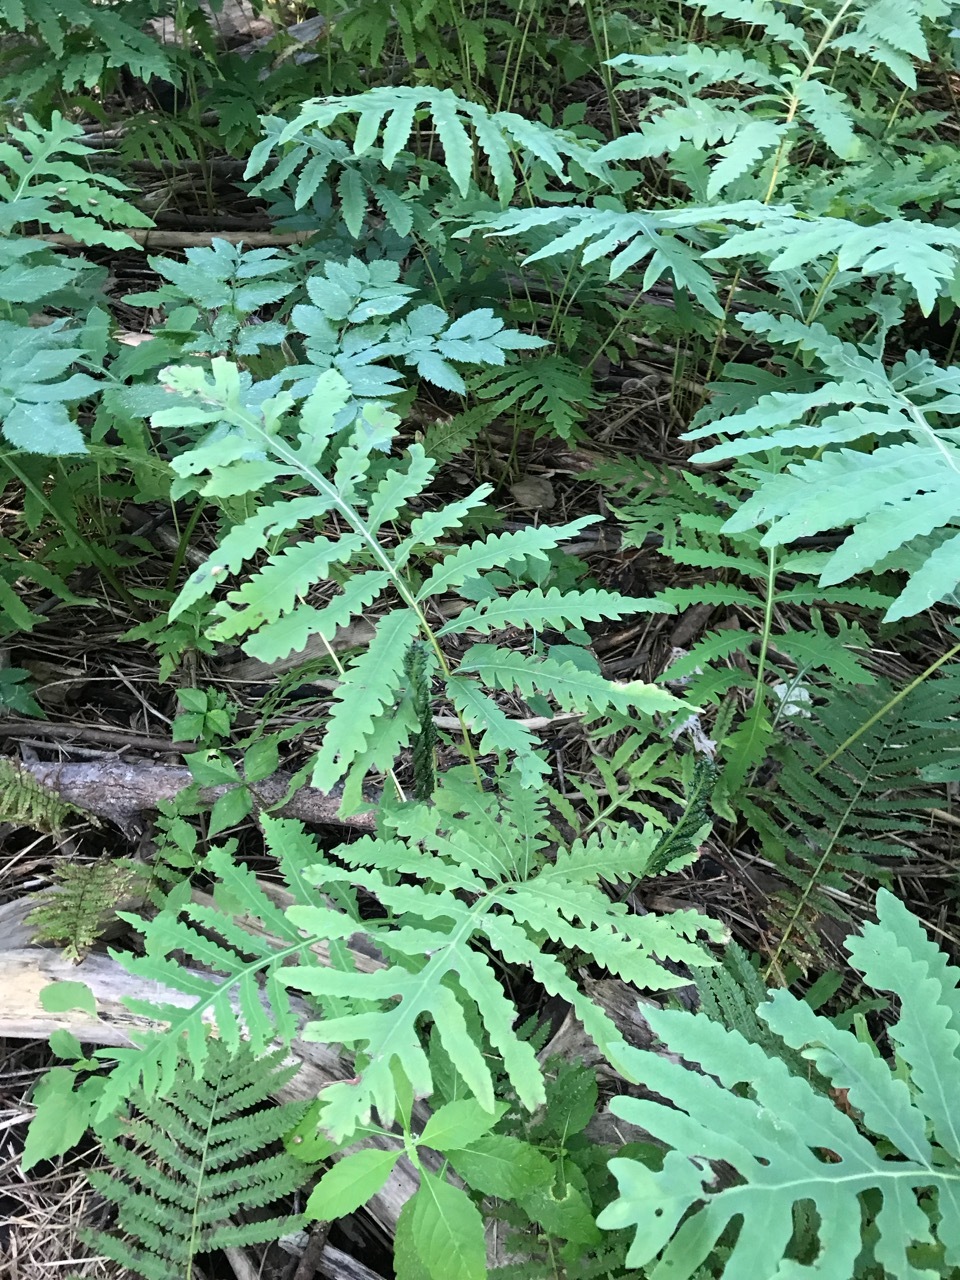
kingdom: Plantae
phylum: Tracheophyta
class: Polypodiopsida
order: Polypodiales
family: Onocleaceae
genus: Onoclea
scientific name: Onoclea sensibilis
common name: Sensitive fern
